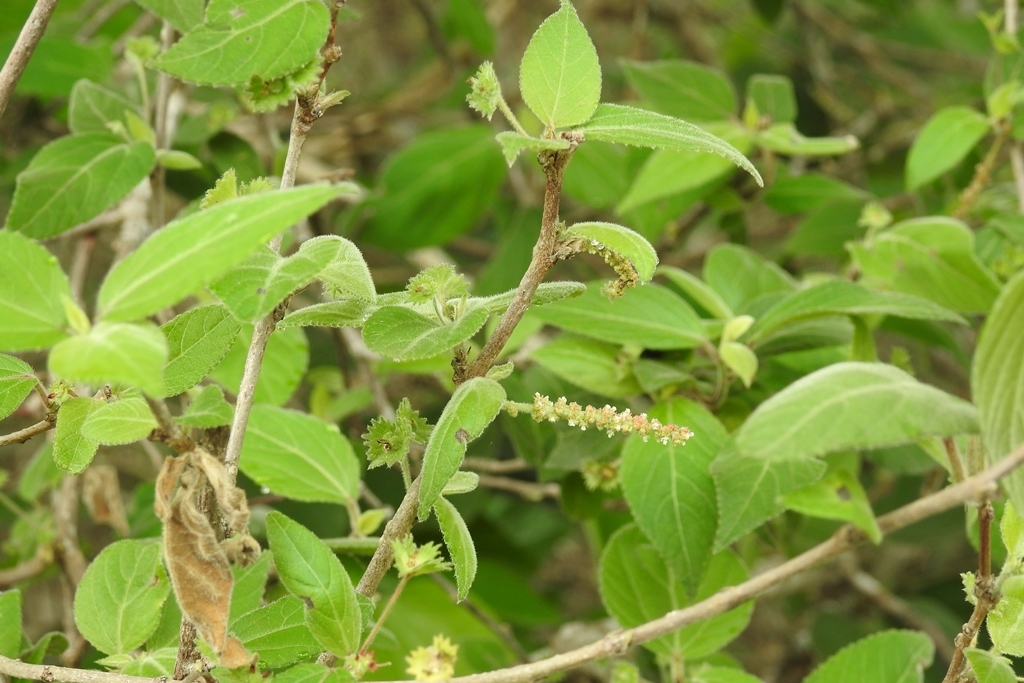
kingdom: Plantae
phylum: Tracheophyta
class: Magnoliopsida
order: Malpighiales
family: Euphorbiaceae
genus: Acalypha
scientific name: Acalypha leptopoda
